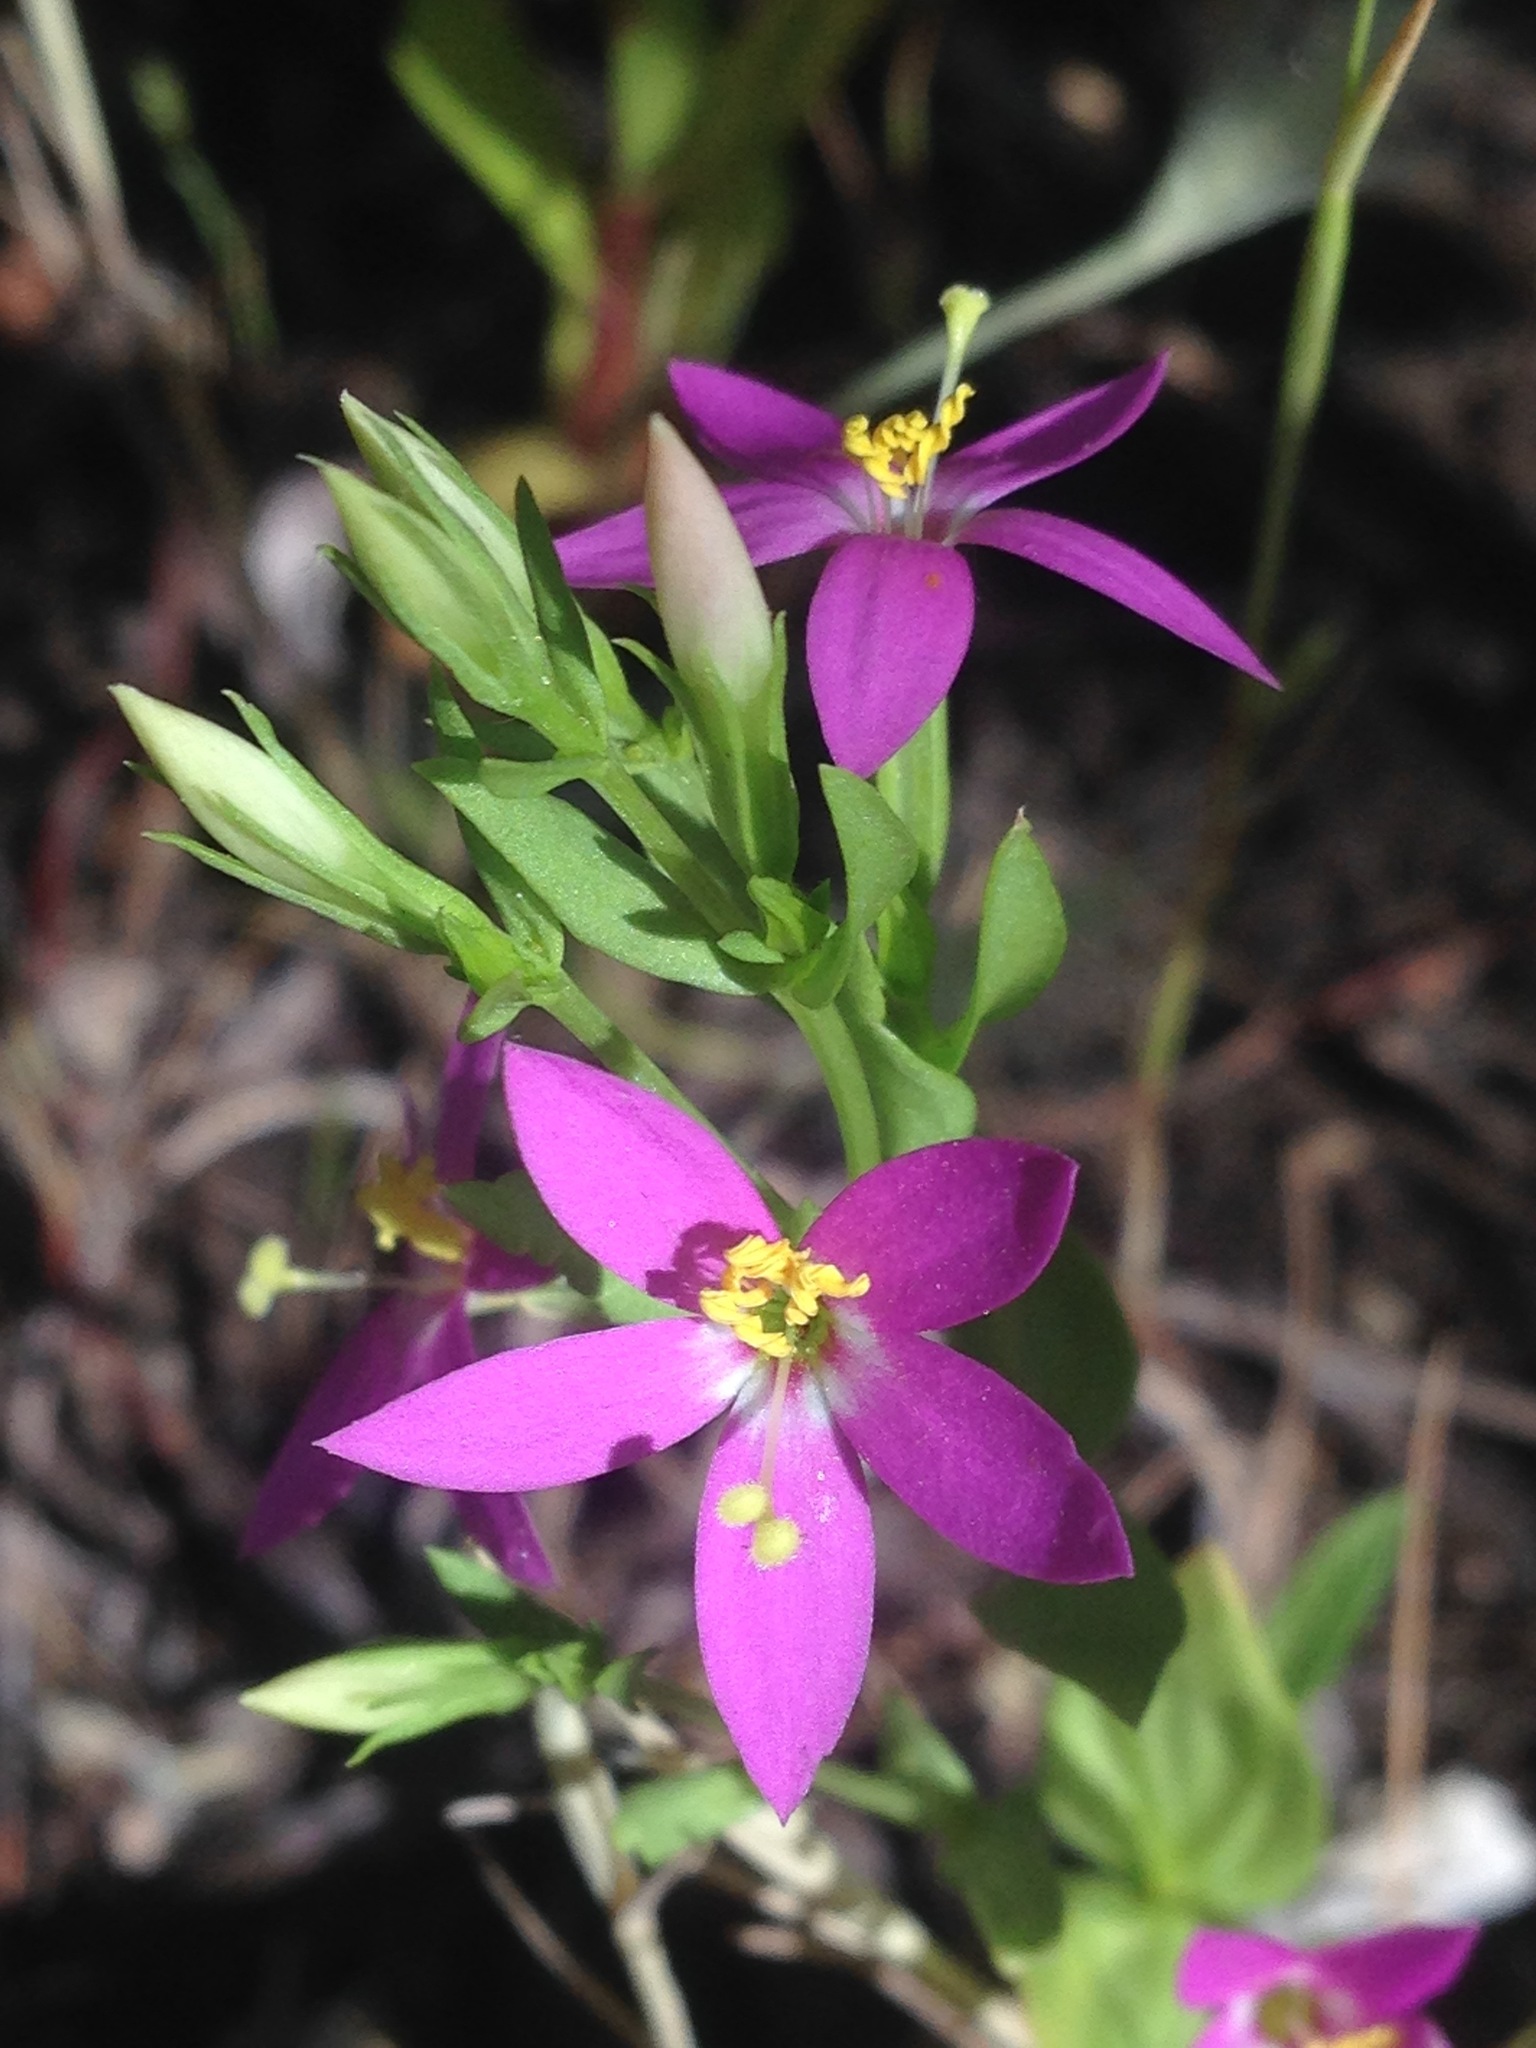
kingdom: Plantae
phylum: Tracheophyta
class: Magnoliopsida
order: Gentianales
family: Gentianaceae
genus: Zeltnera
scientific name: Zeltnera venusta
